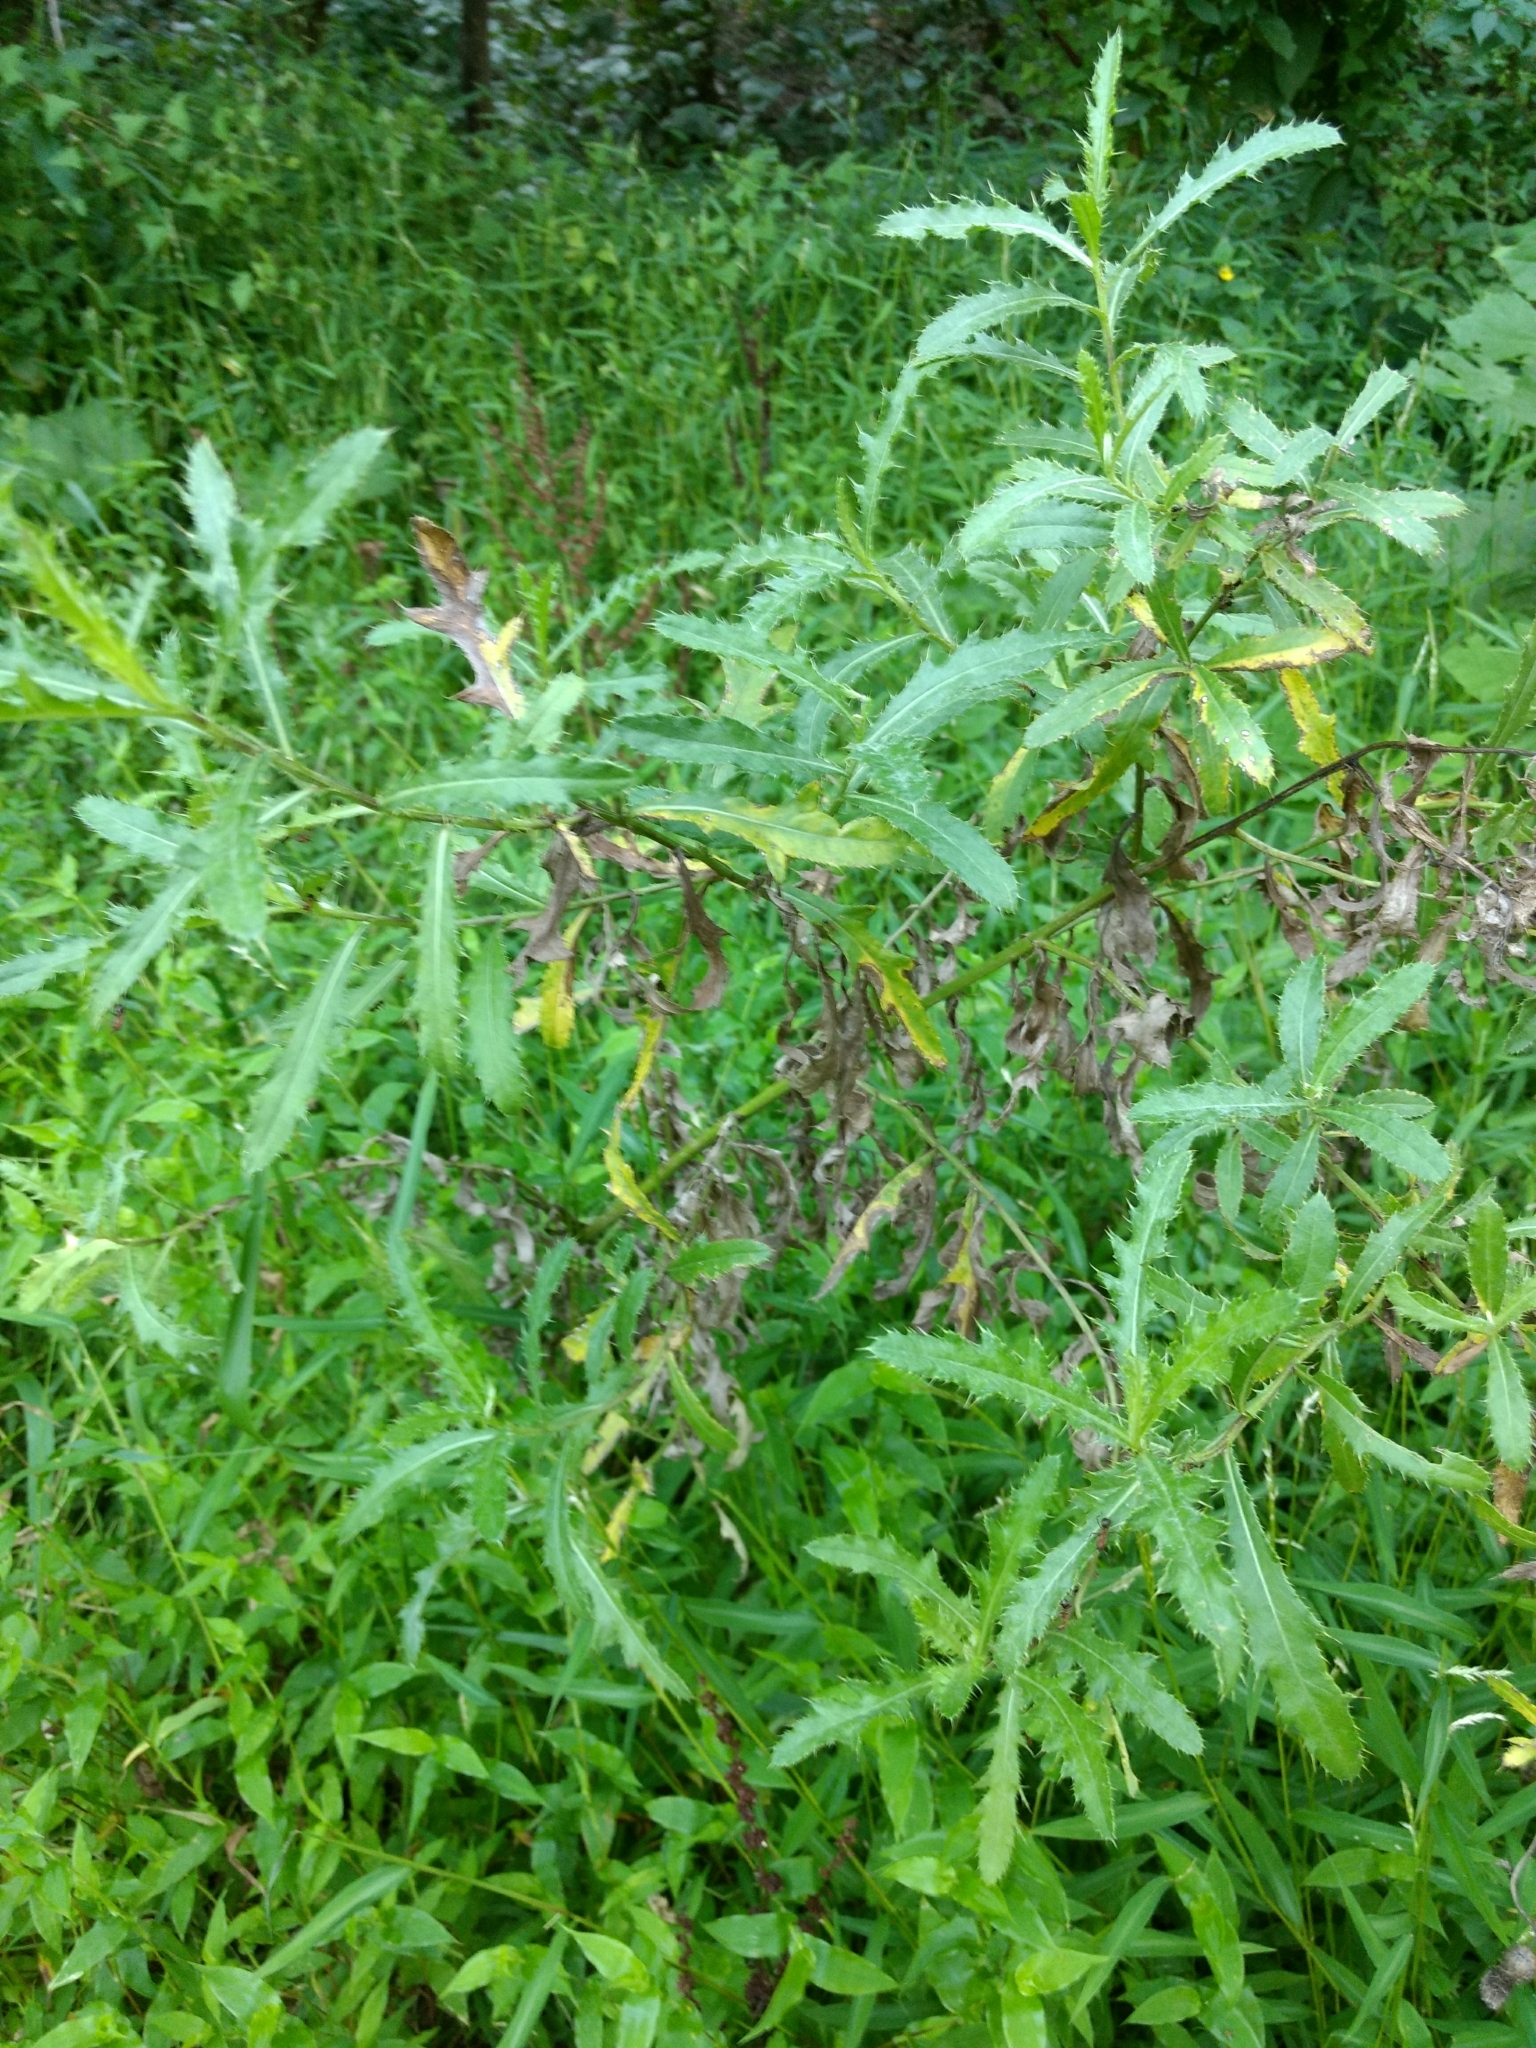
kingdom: Plantae
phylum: Tracheophyta
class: Magnoliopsida
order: Asterales
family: Asteraceae
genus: Cirsium
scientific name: Cirsium arvense
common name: Creeping thistle
